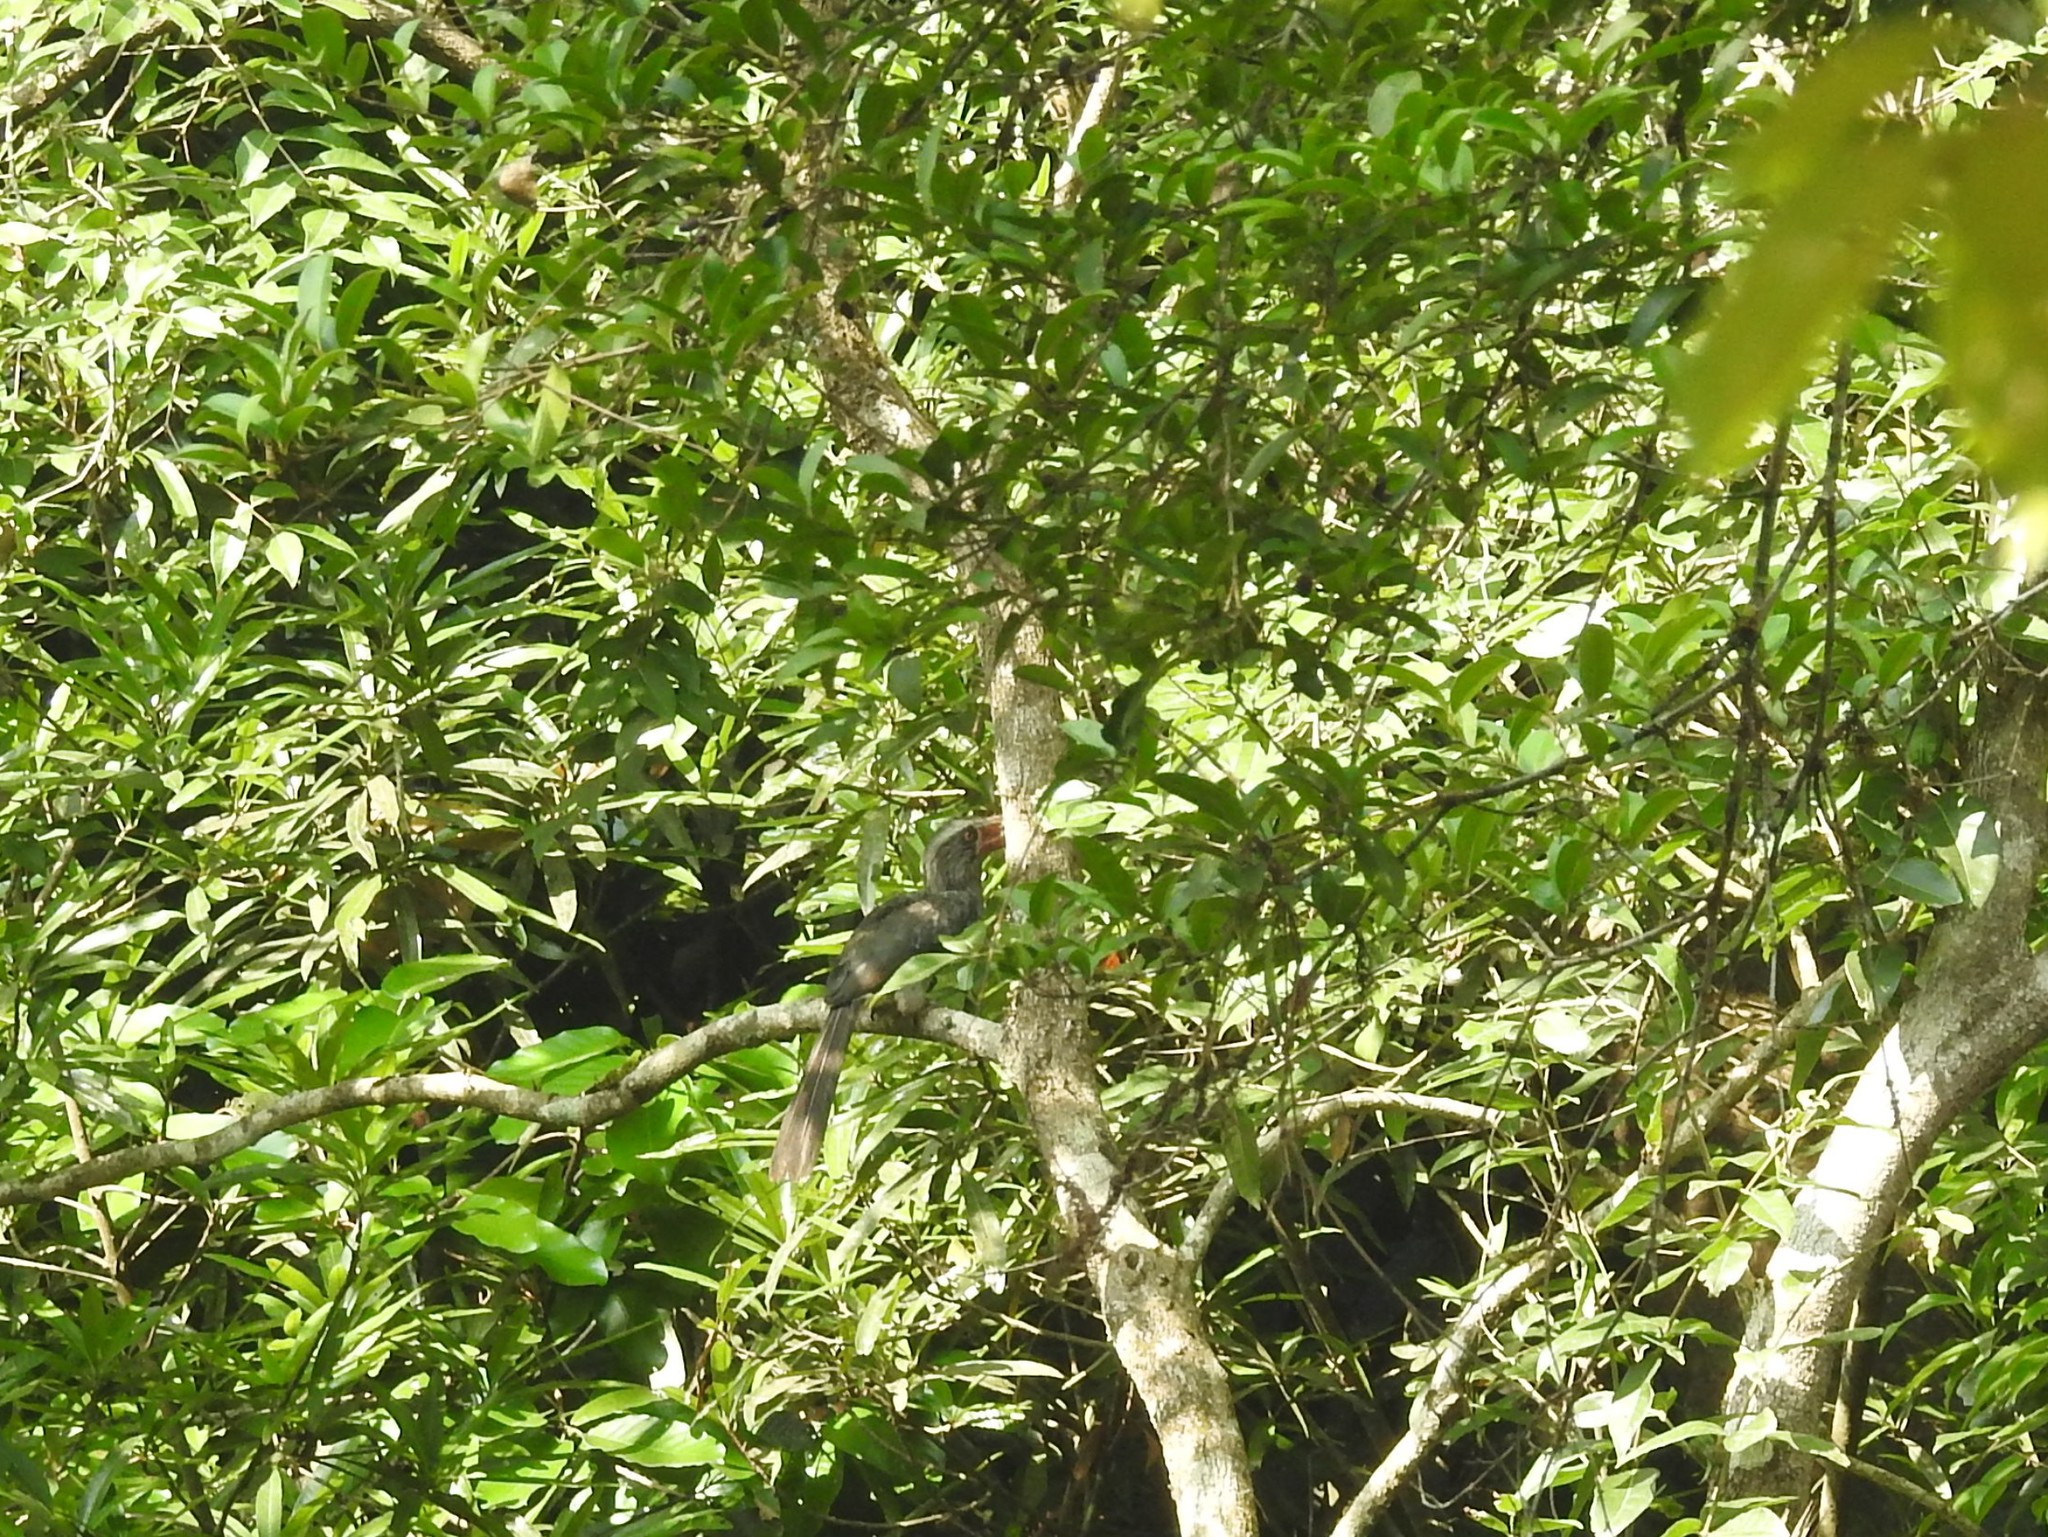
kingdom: Animalia
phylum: Chordata
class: Aves
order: Bucerotiformes
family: Bucerotidae
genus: Ocyceros
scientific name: Ocyceros griseus
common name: Malabar grey hornbill
